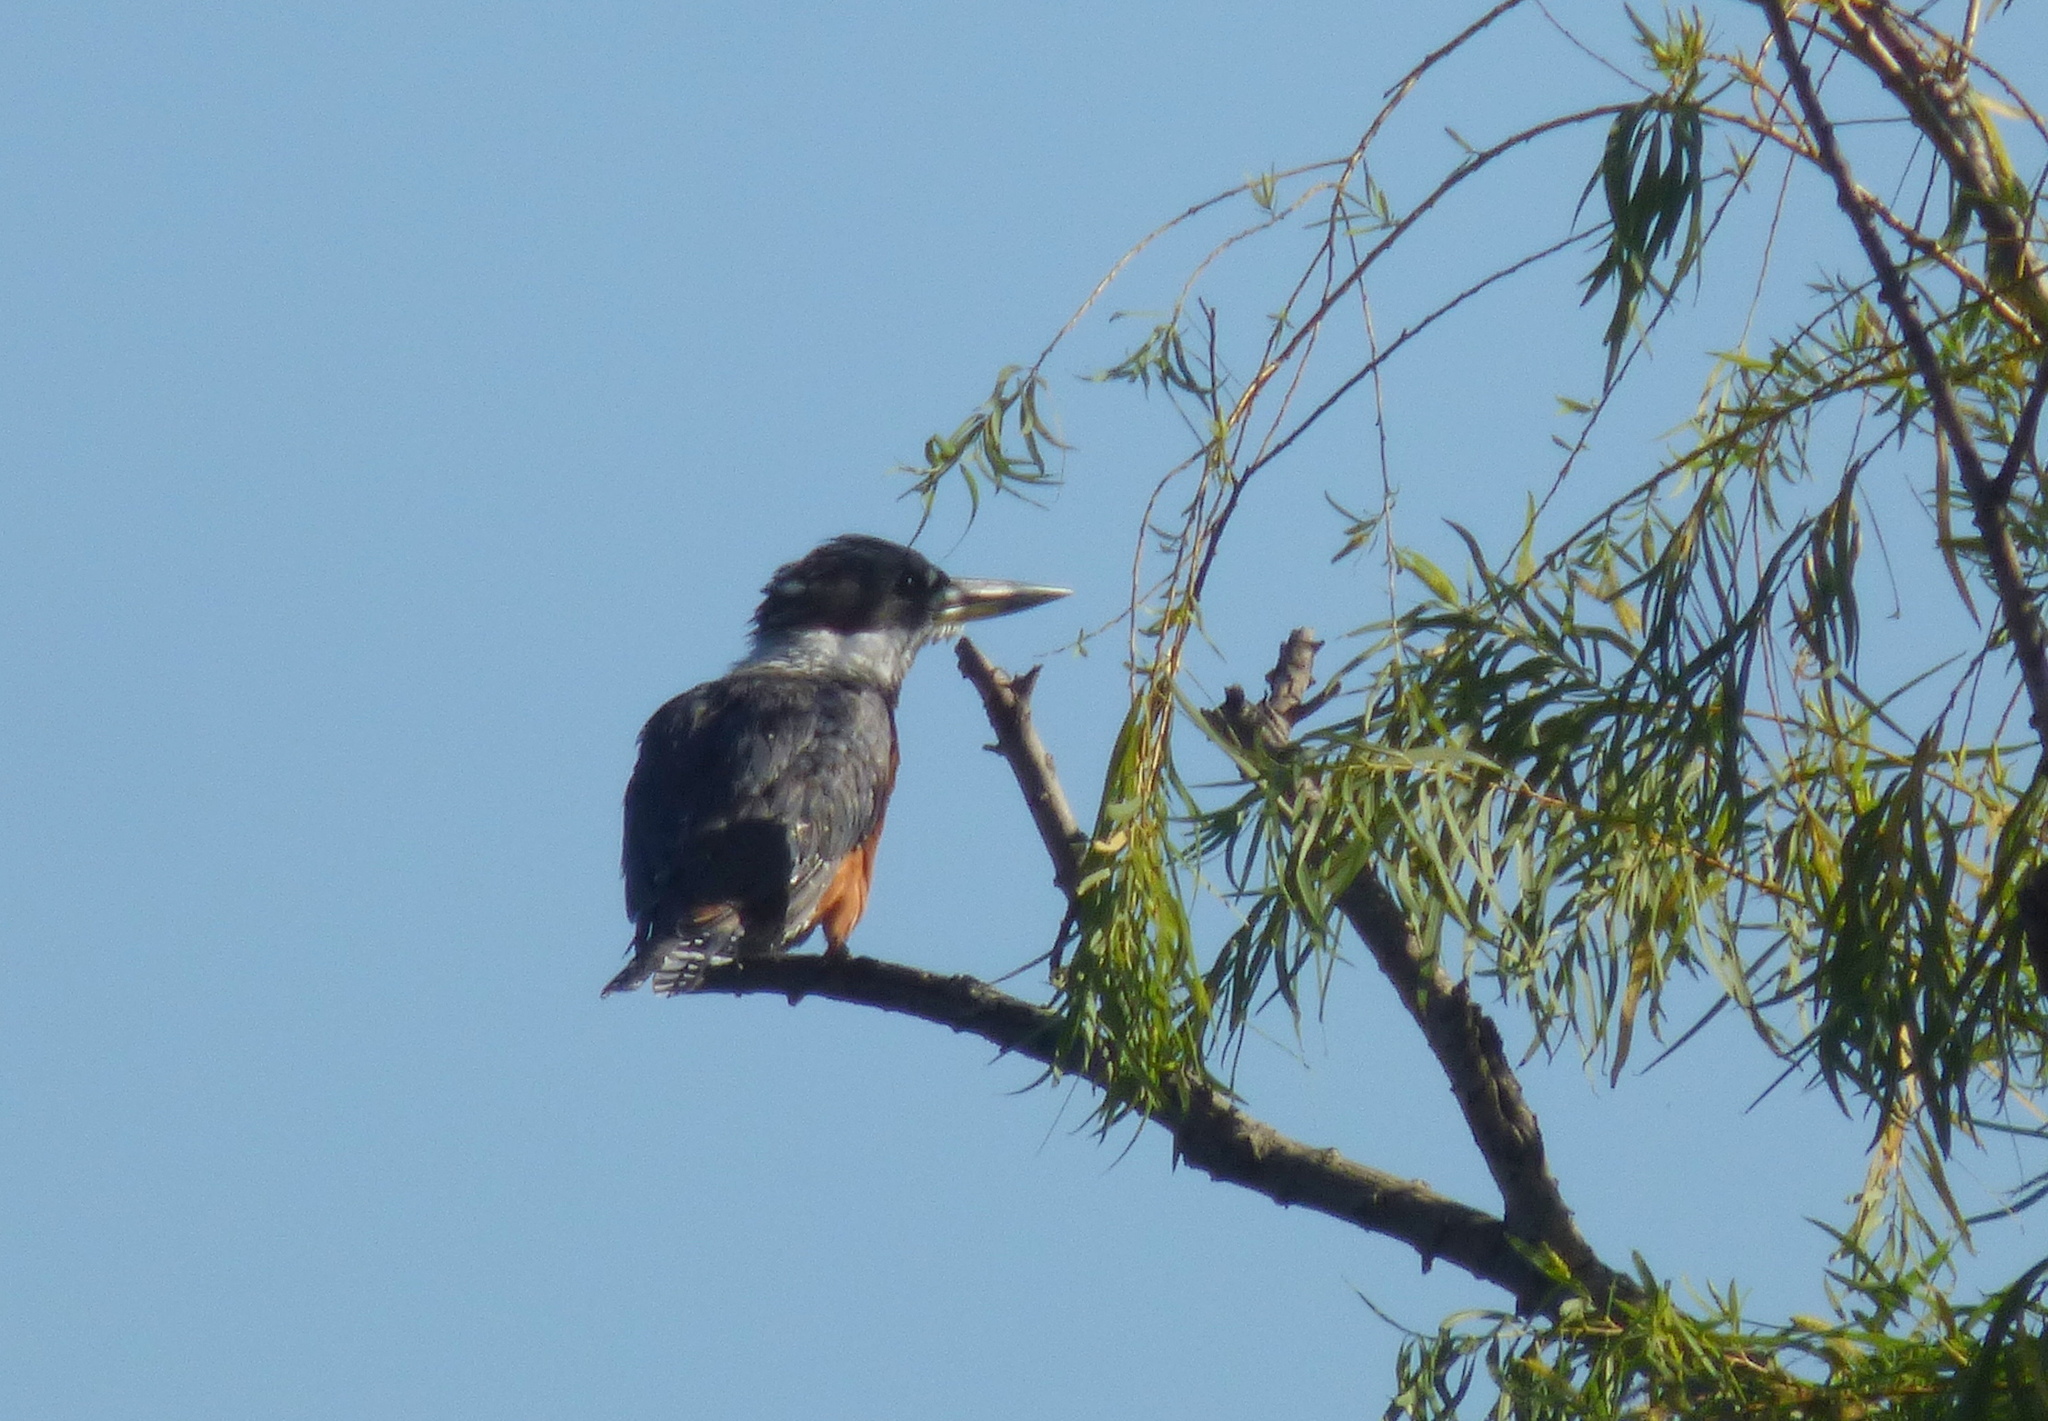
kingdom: Animalia
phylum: Chordata
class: Aves
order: Coraciiformes
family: Alcedinidae
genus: Megaceryle
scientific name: Megaceryle torquata
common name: Ringed kingfisher
